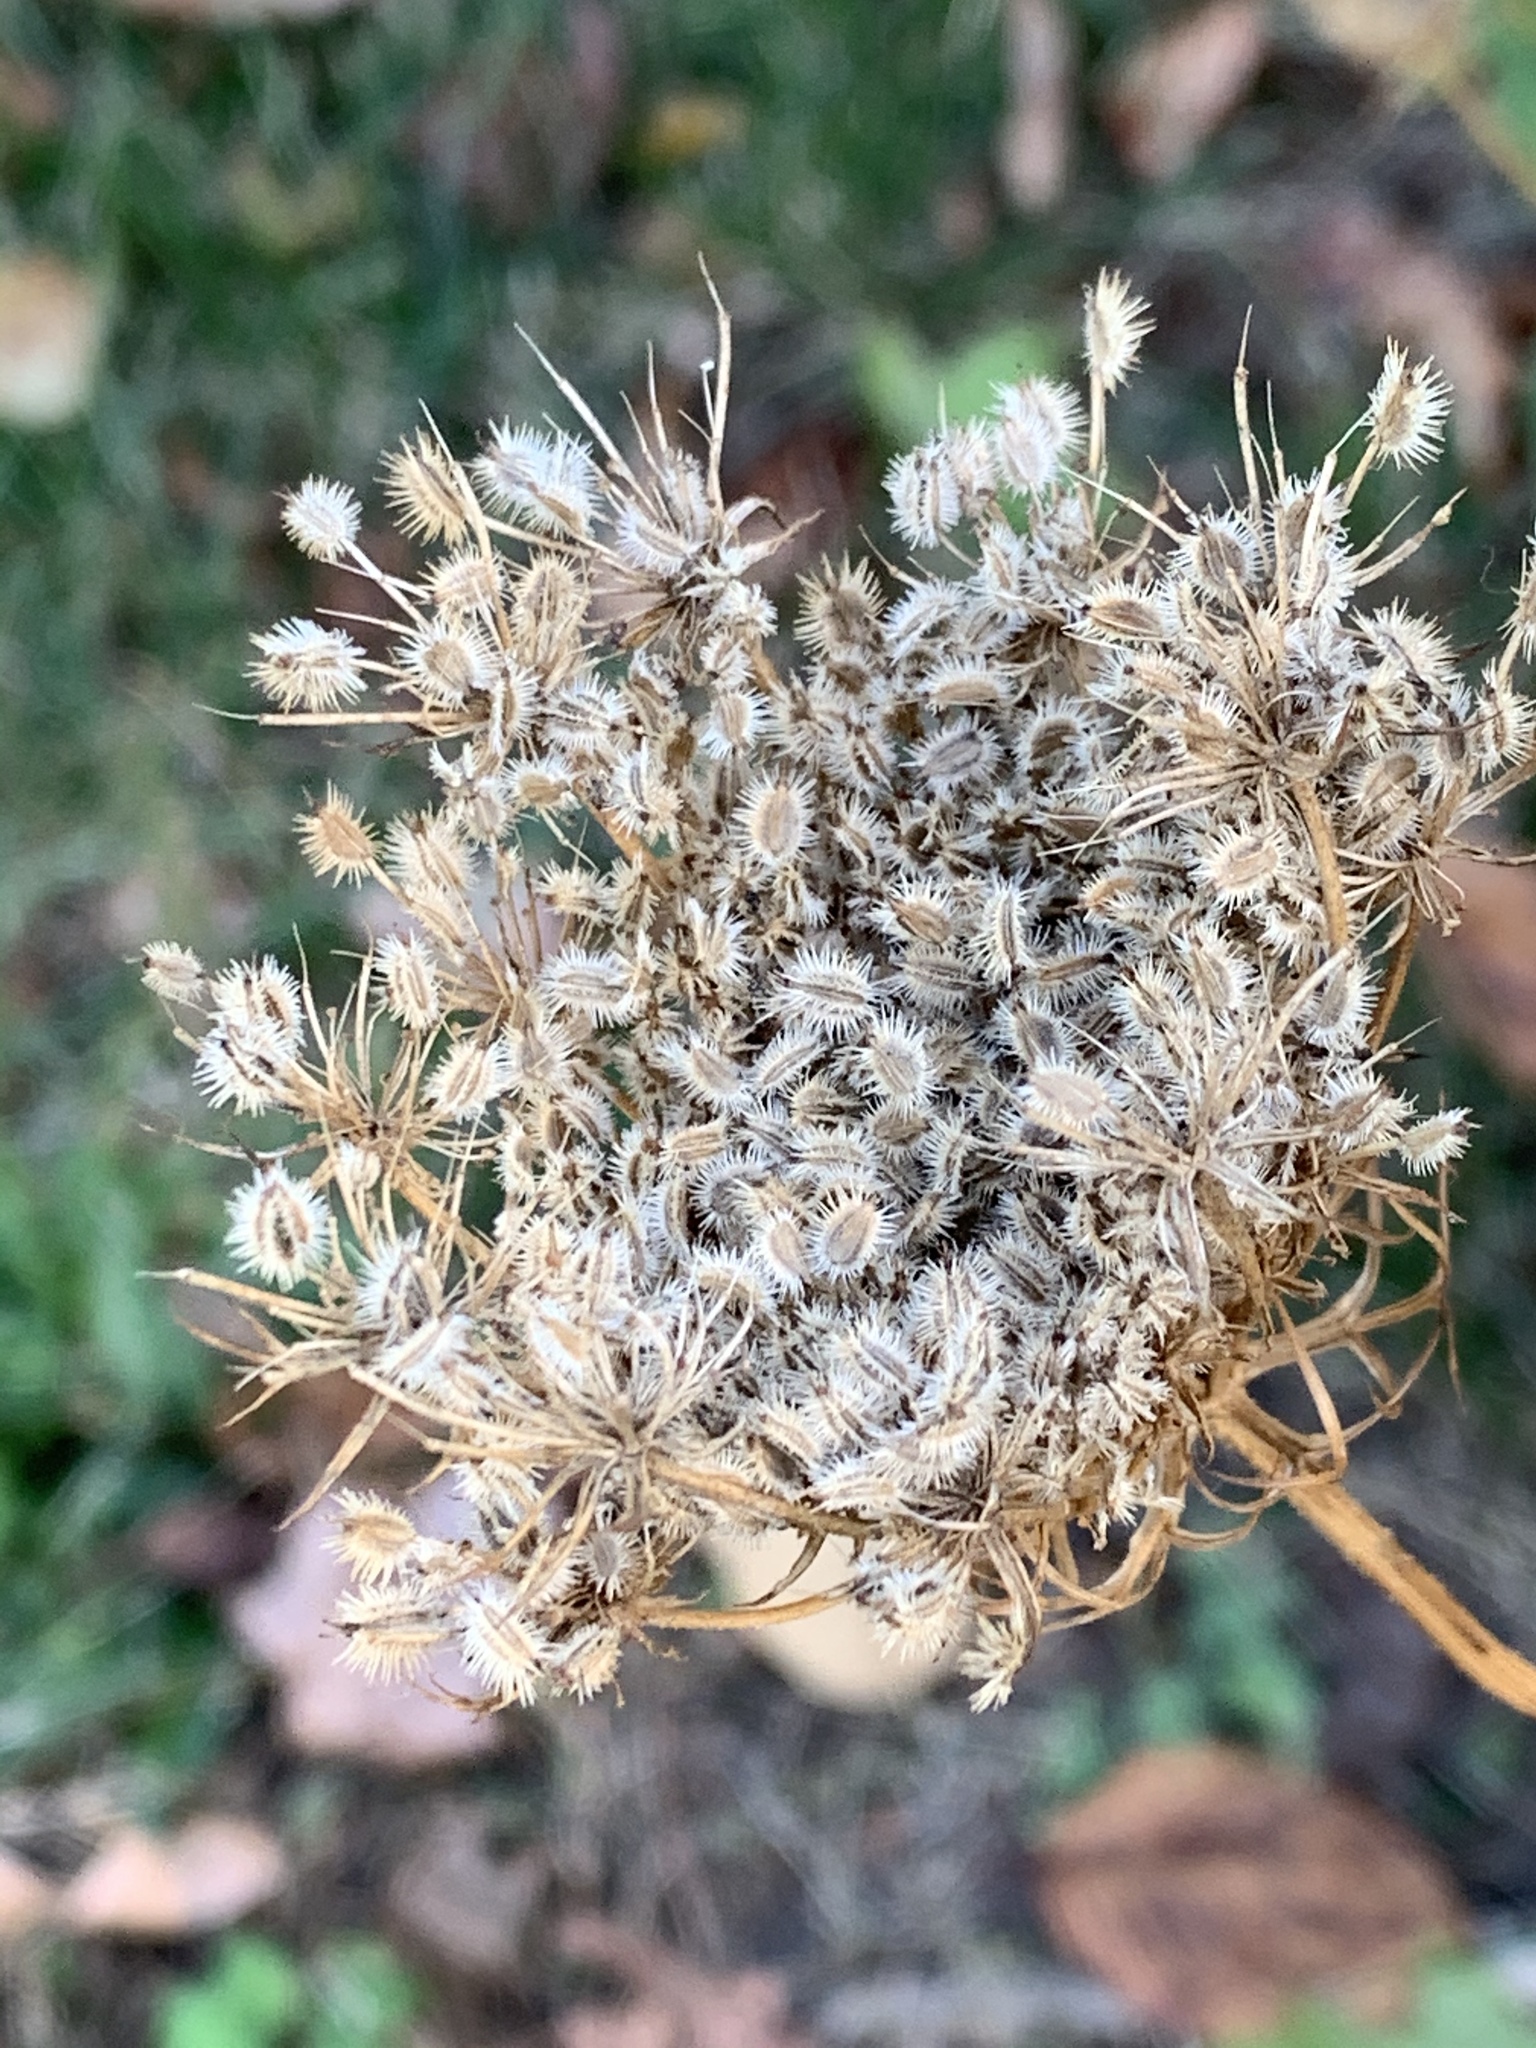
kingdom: Plantae
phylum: Tracheophyta
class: Magnoliopsida
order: Apiales
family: Apiaceae
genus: Daucus
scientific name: Daucus carota
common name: Wild carrot
